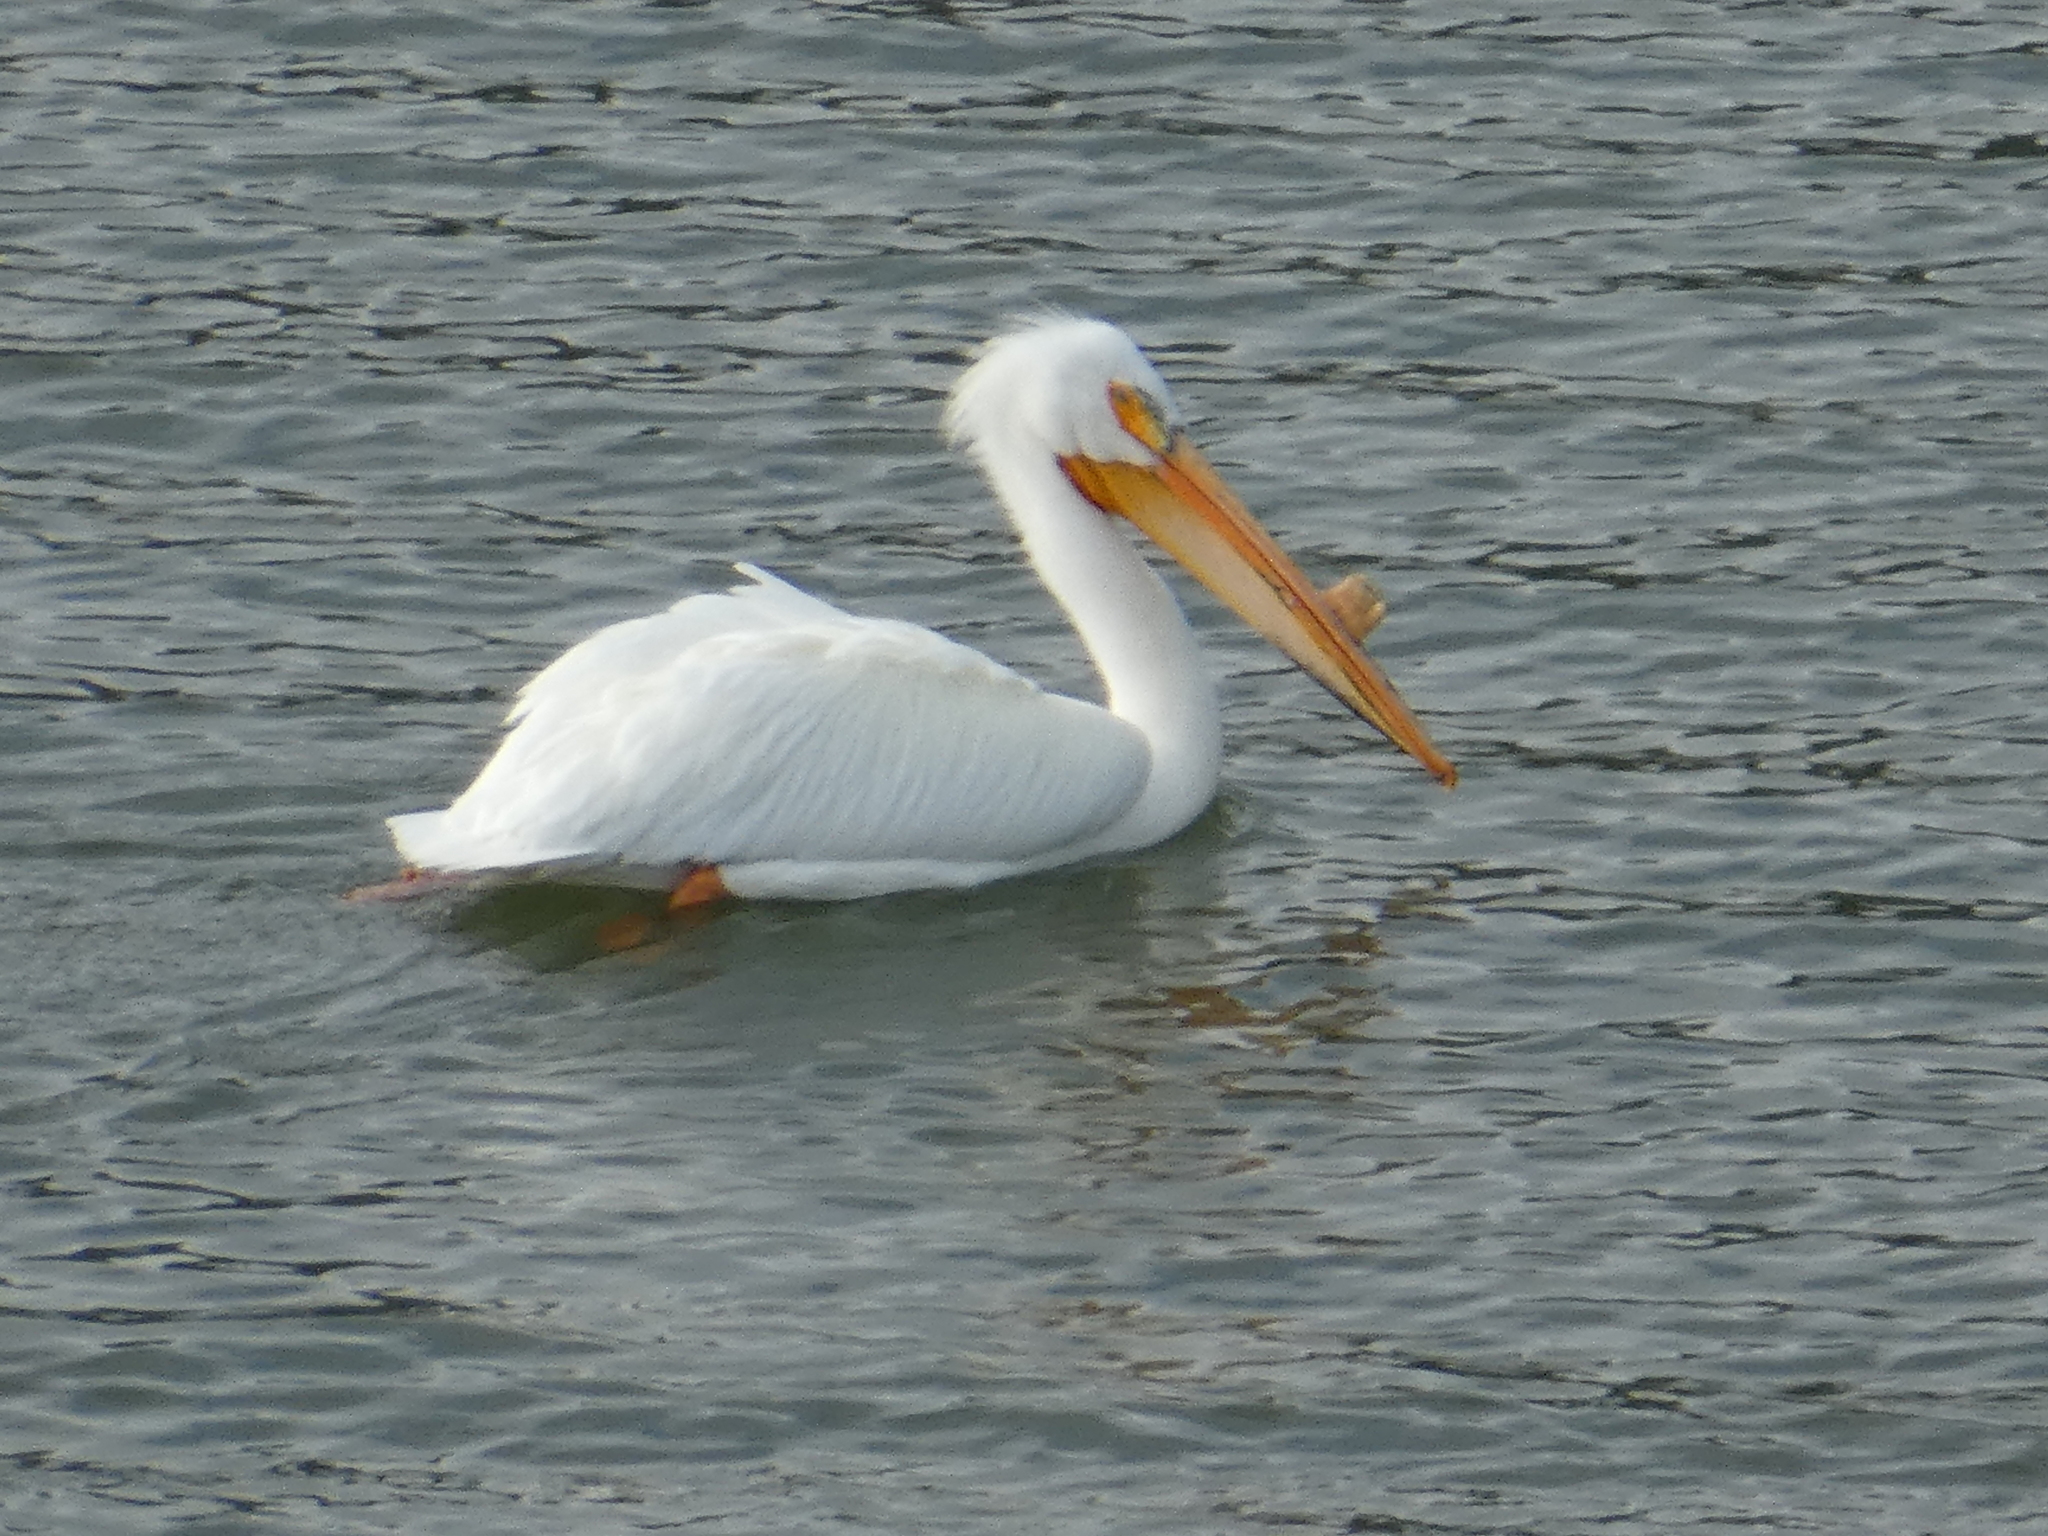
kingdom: Animalia
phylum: Chordata
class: Aves
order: Pelecaniformes
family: Pelecanidae
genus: Pelecanus
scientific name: Pelecanus erythrorhynchos
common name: American white pelican
